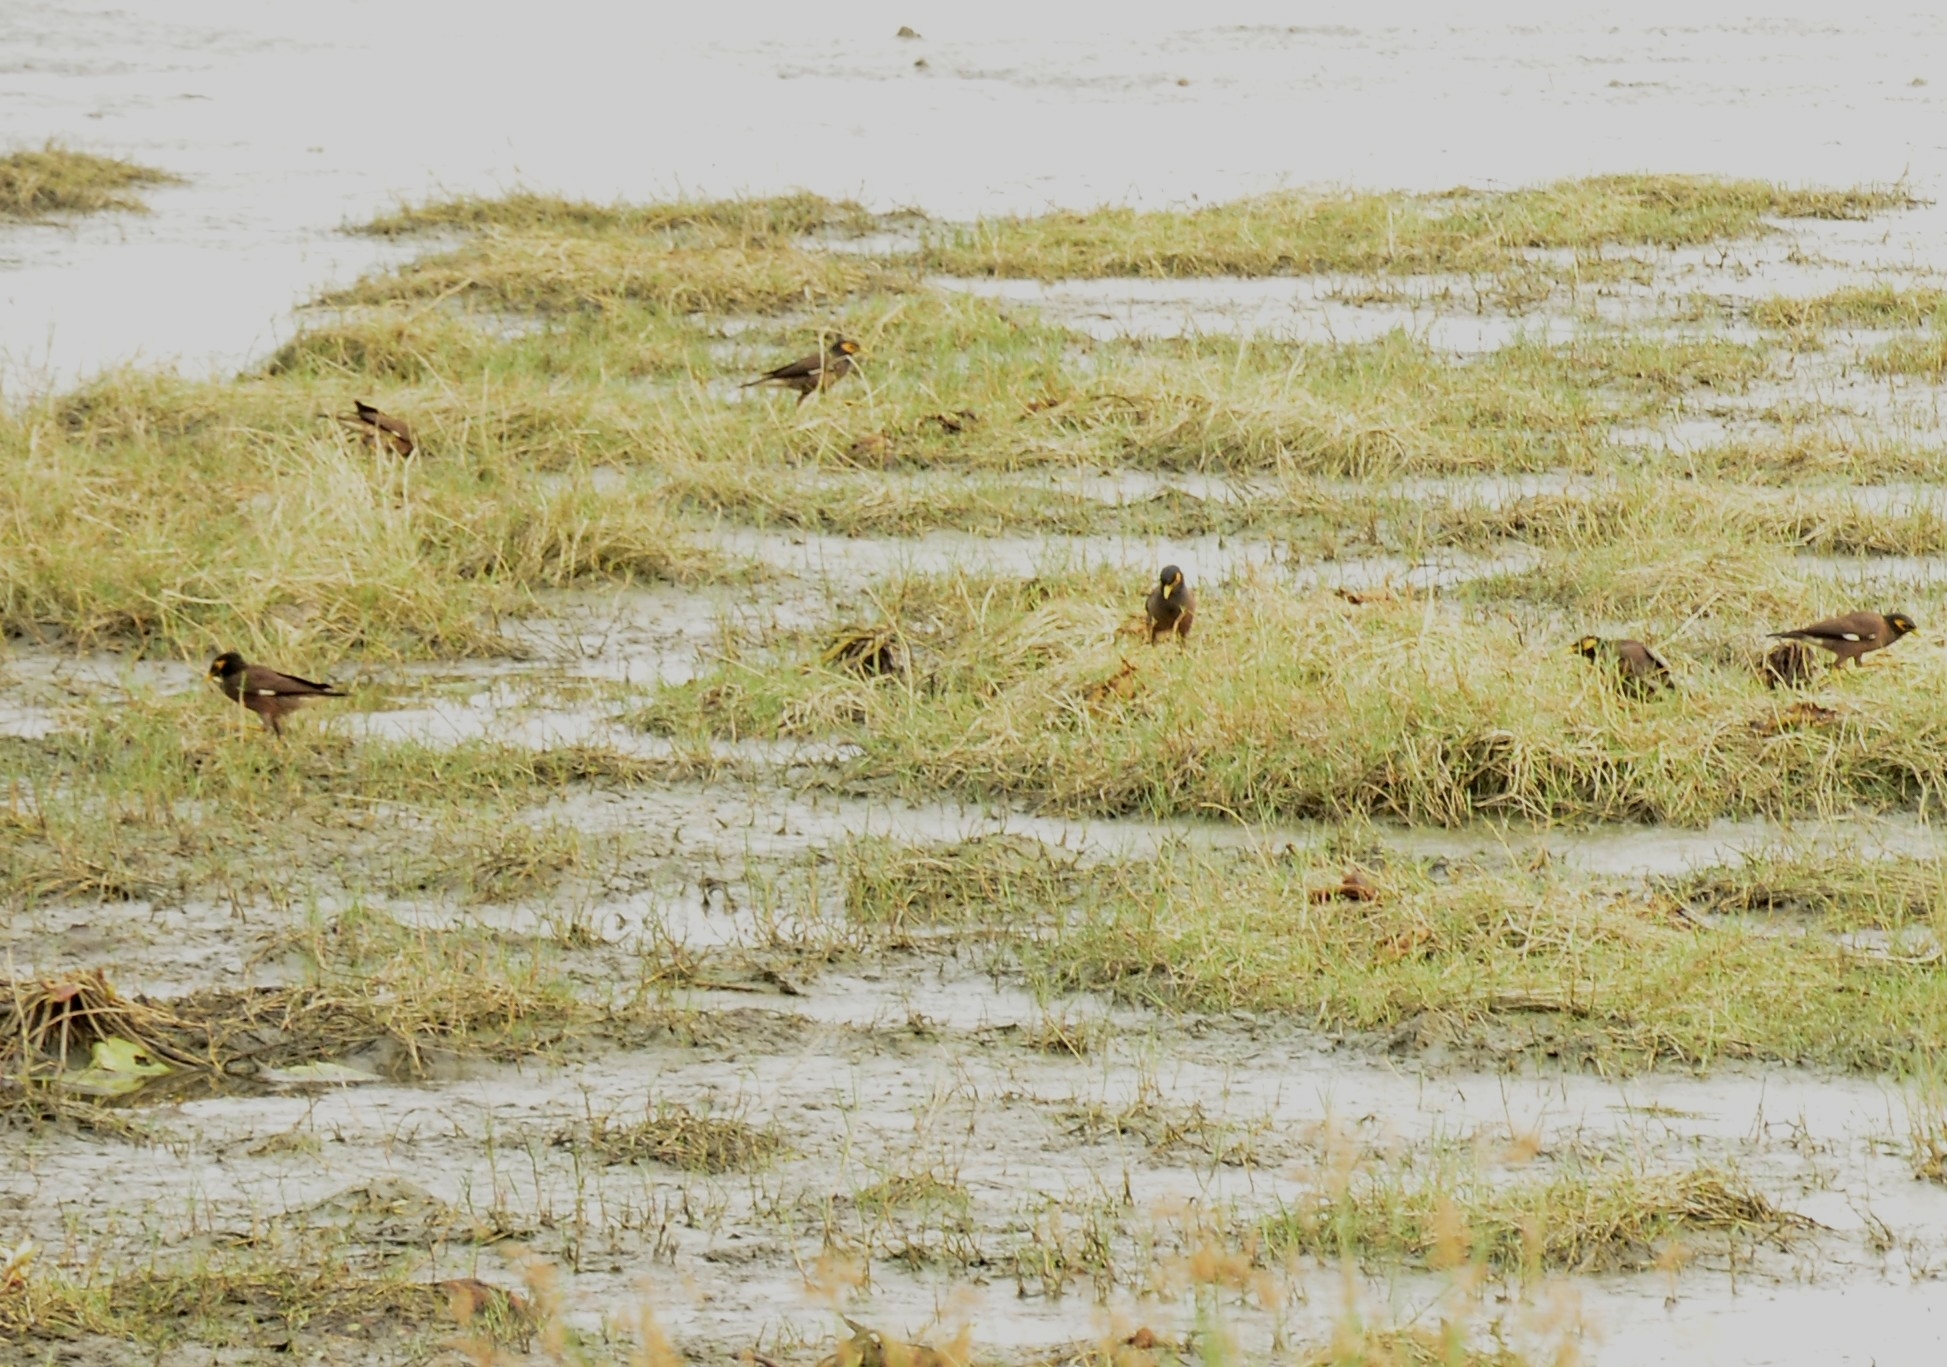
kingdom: Animalia
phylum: Chordata
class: Aves
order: Passeriformes
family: Sturnidae
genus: Acridotheres
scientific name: Acridotheres tristis
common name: Common myna
